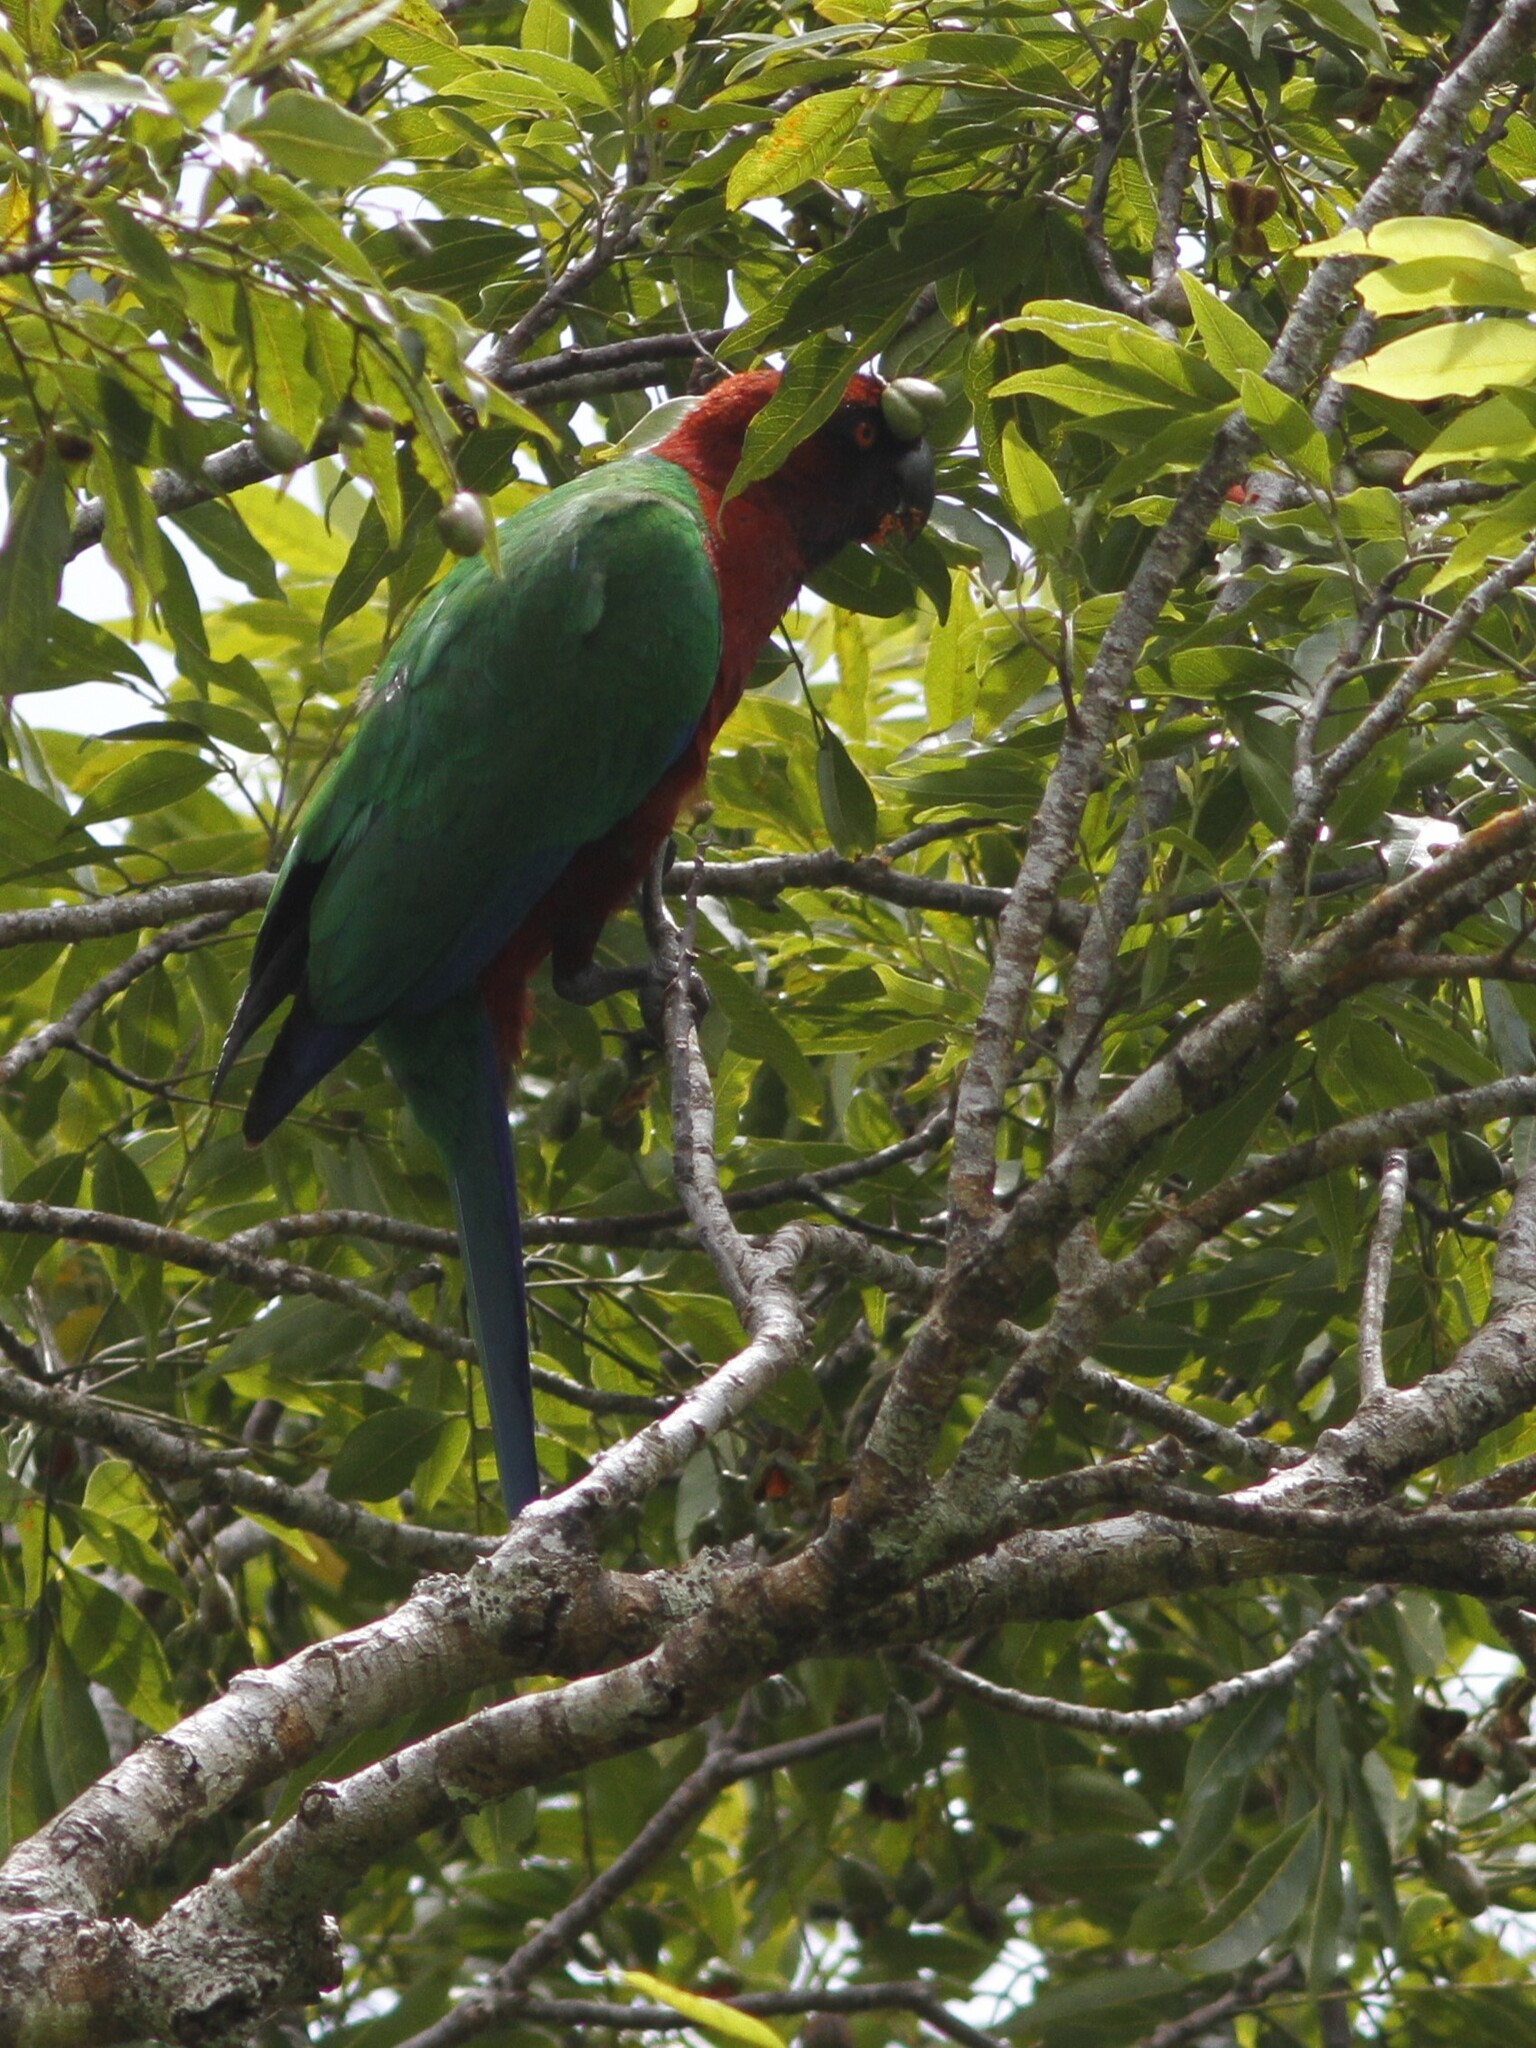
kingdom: Animalia
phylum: Chordata
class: Aves
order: Psittaciformes
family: Psittacidae
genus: Prosopeia
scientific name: Prosopeia tabuensis
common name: Maroon shining parrot
